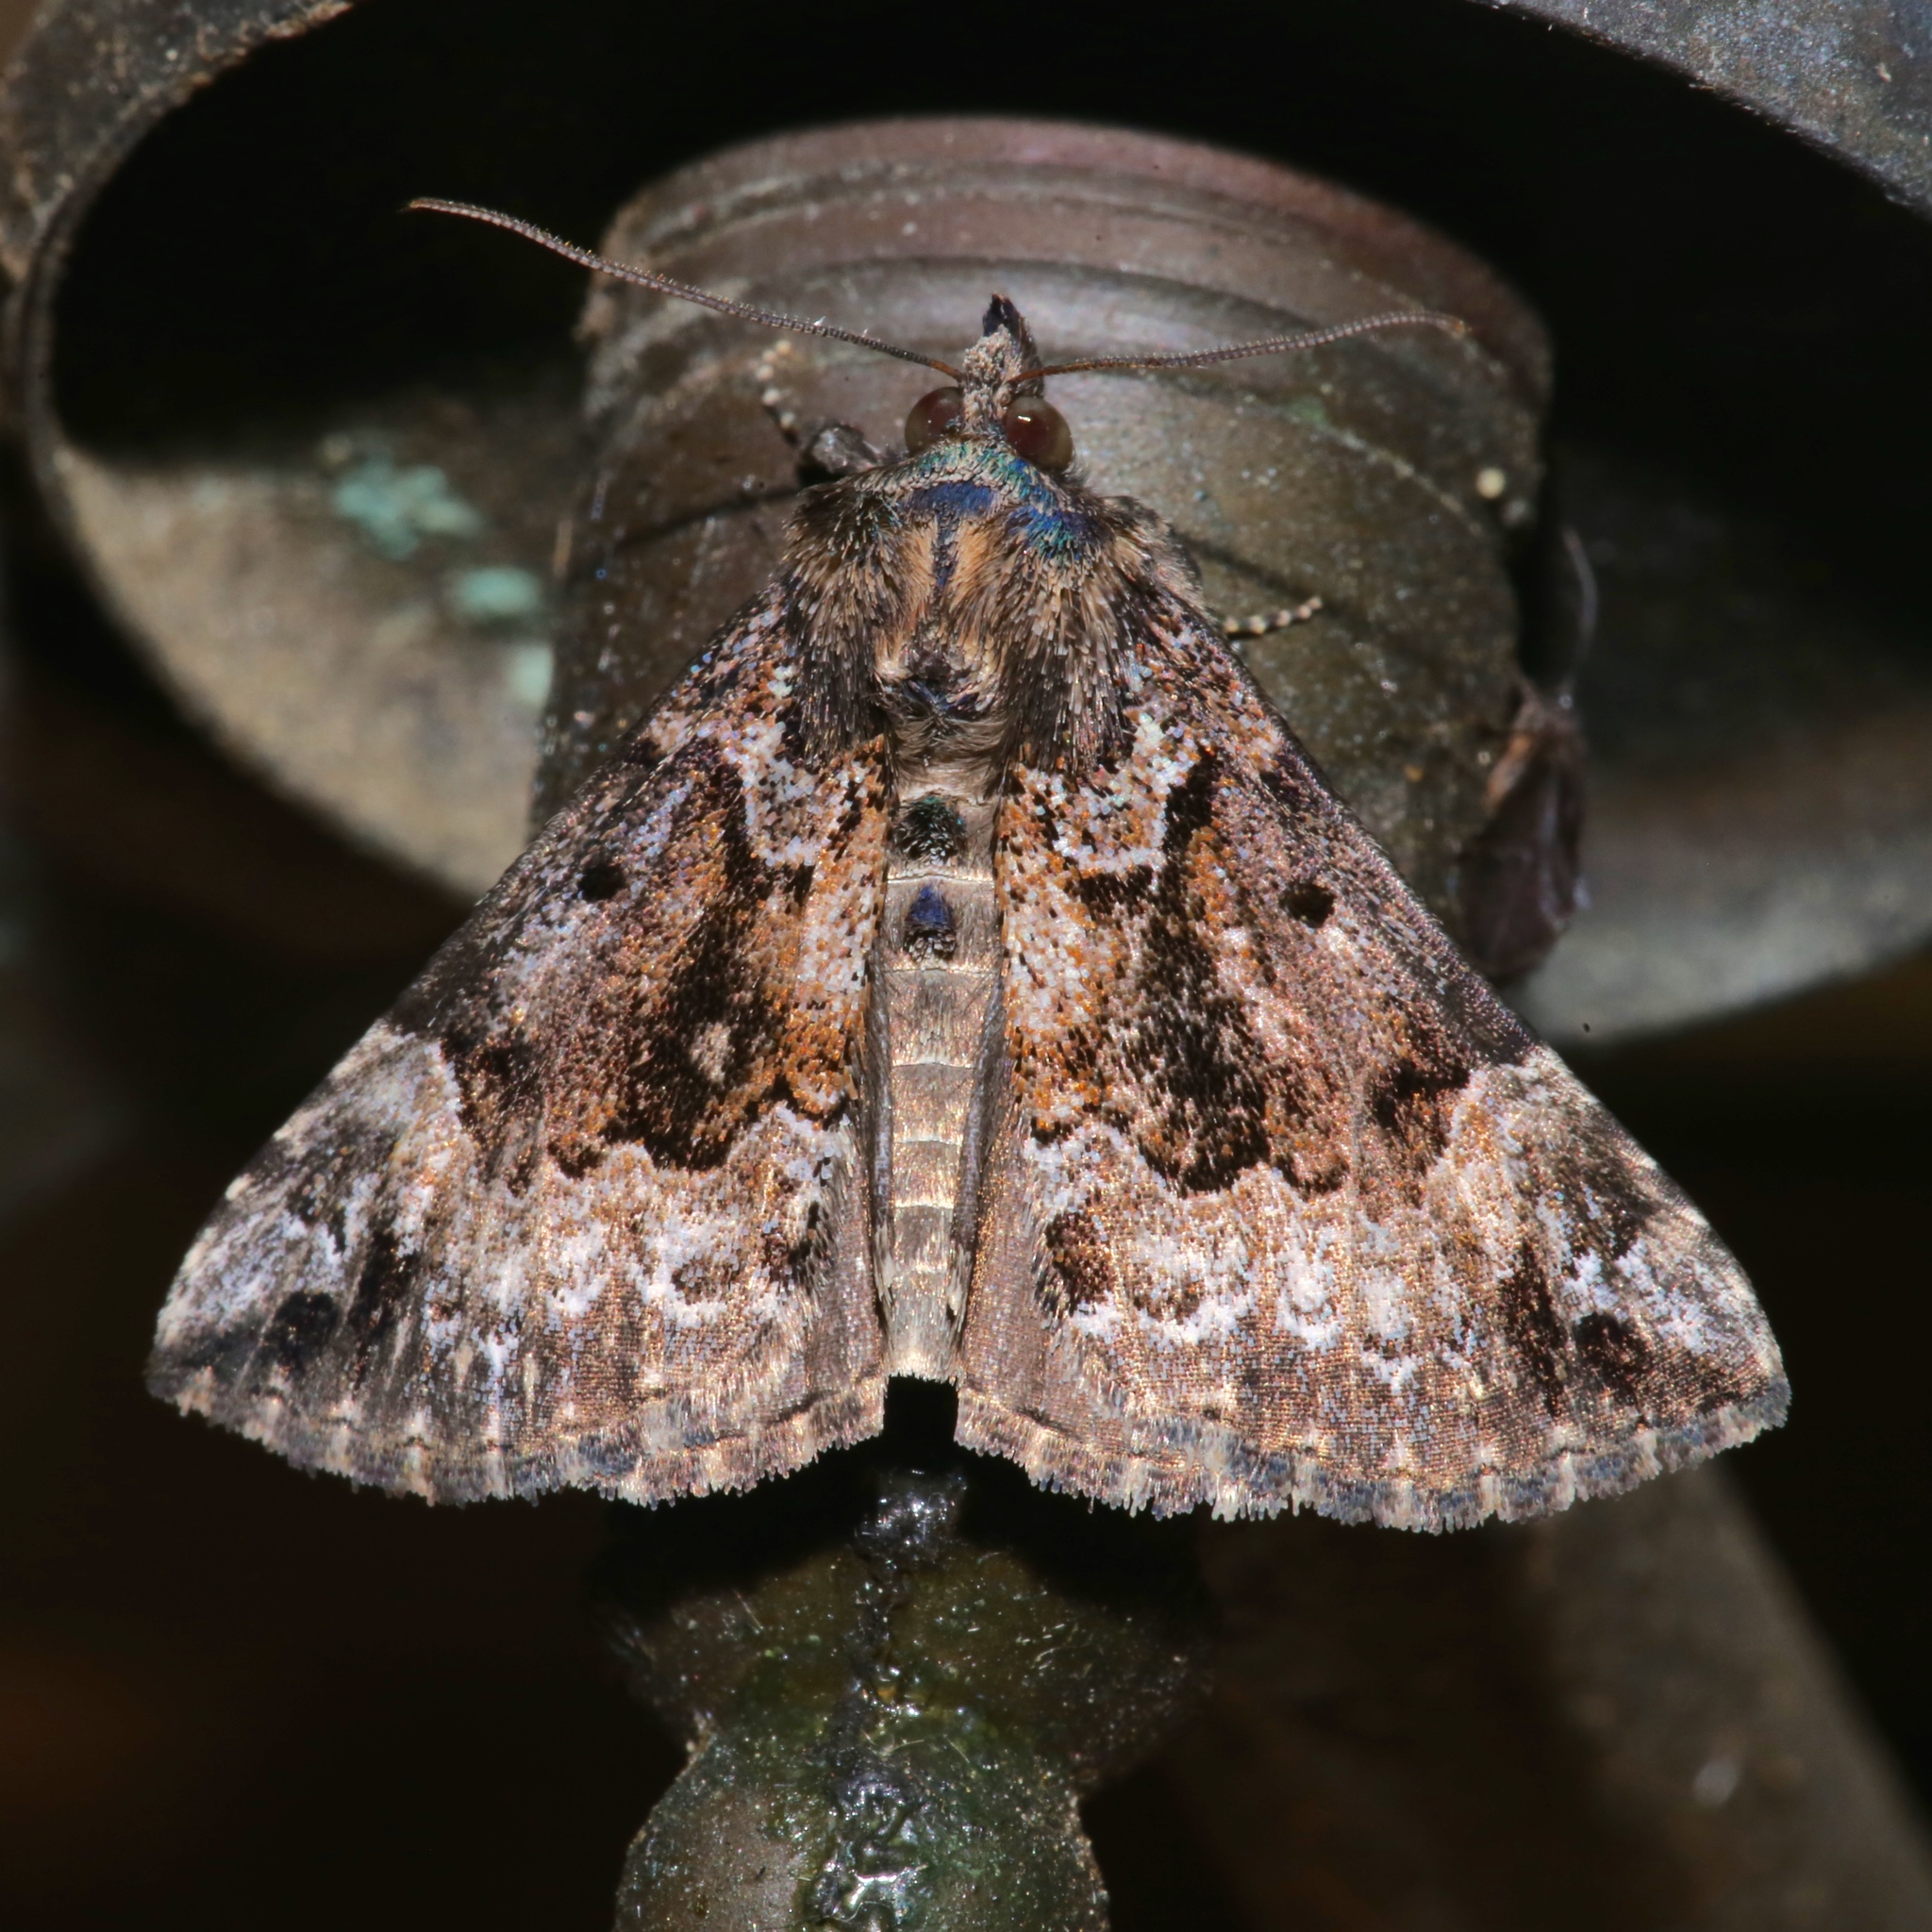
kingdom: Animalia
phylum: Arthropoda
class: Insecta
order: Lepidoptera
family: Erebidae
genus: Hypena
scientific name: Hypena palparia
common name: Mottled bomolocha moth
